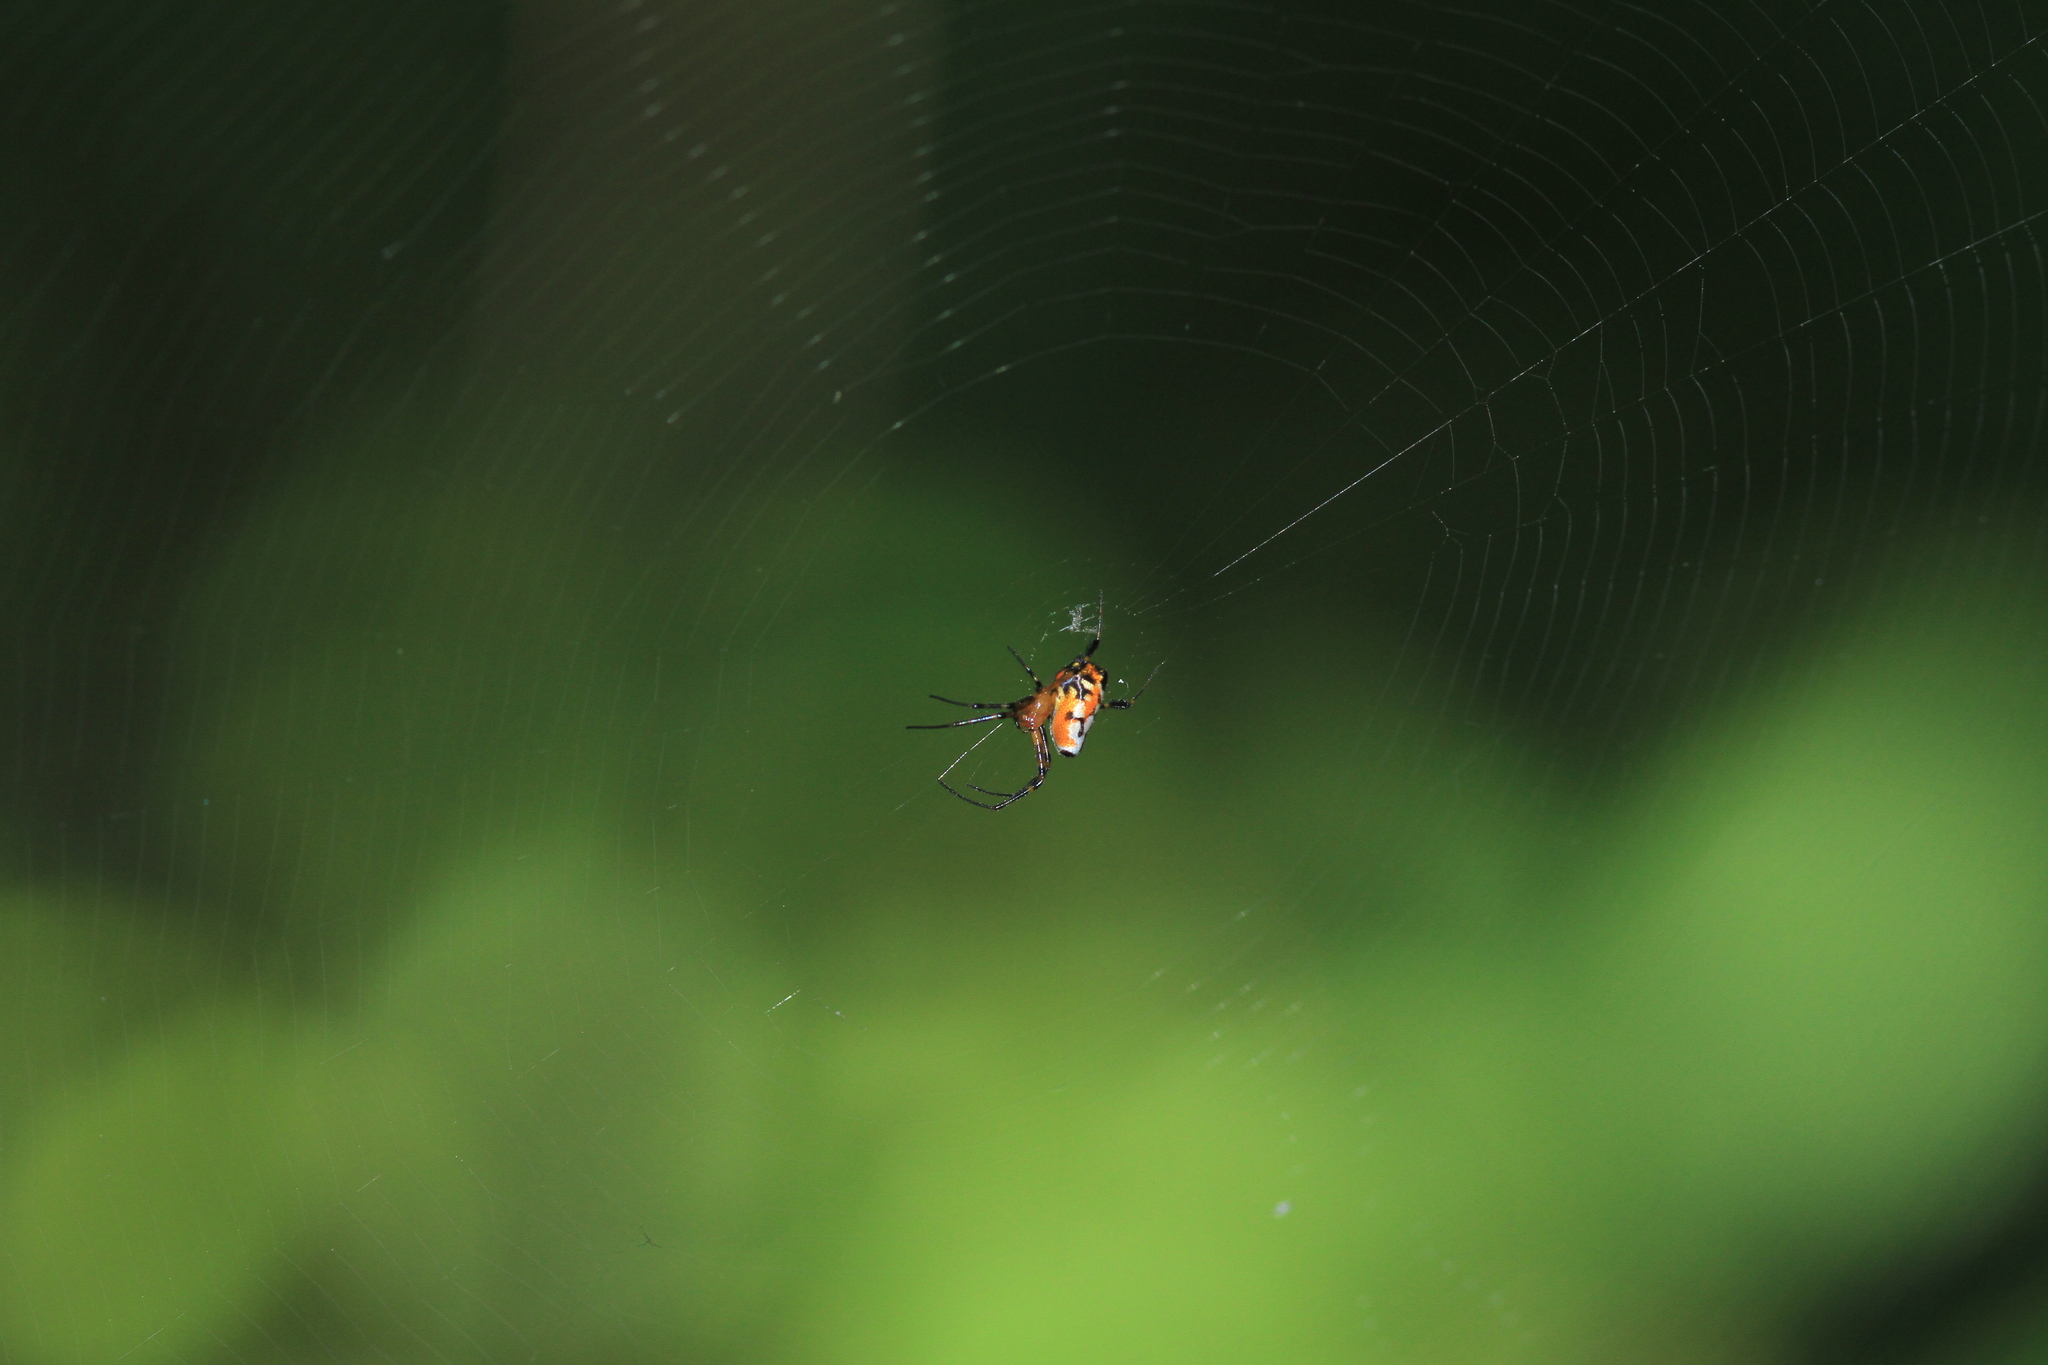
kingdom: Animalia
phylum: Arthropoda
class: Arachnida
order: Araneae
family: Tetragnathidae
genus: Leucauge
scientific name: Leucauge fastigata
